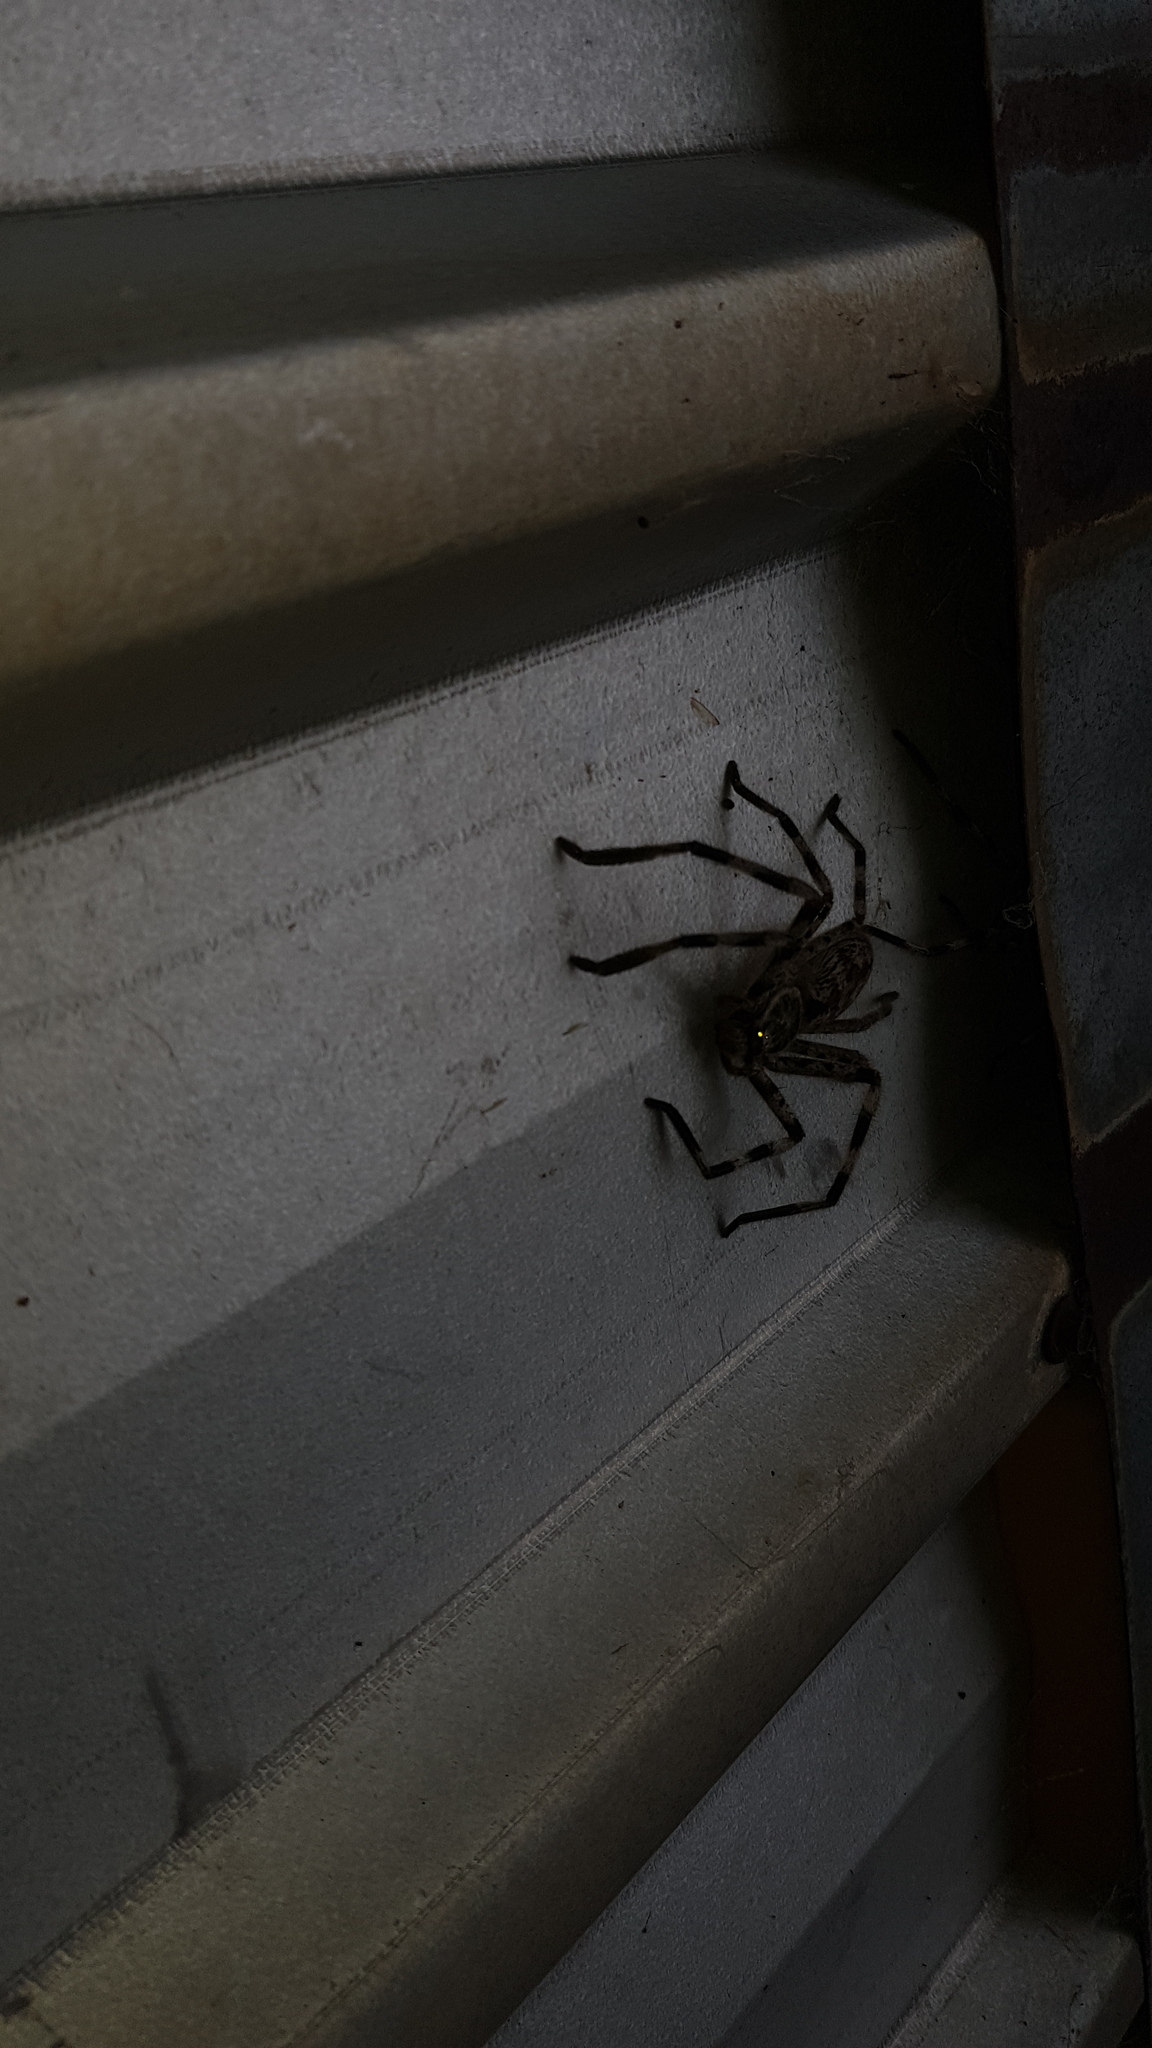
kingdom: Animalia
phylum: Arthropoda
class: Arachnida
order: Araneae
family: Sparassidae
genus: Holconia
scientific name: Holconia insignis
